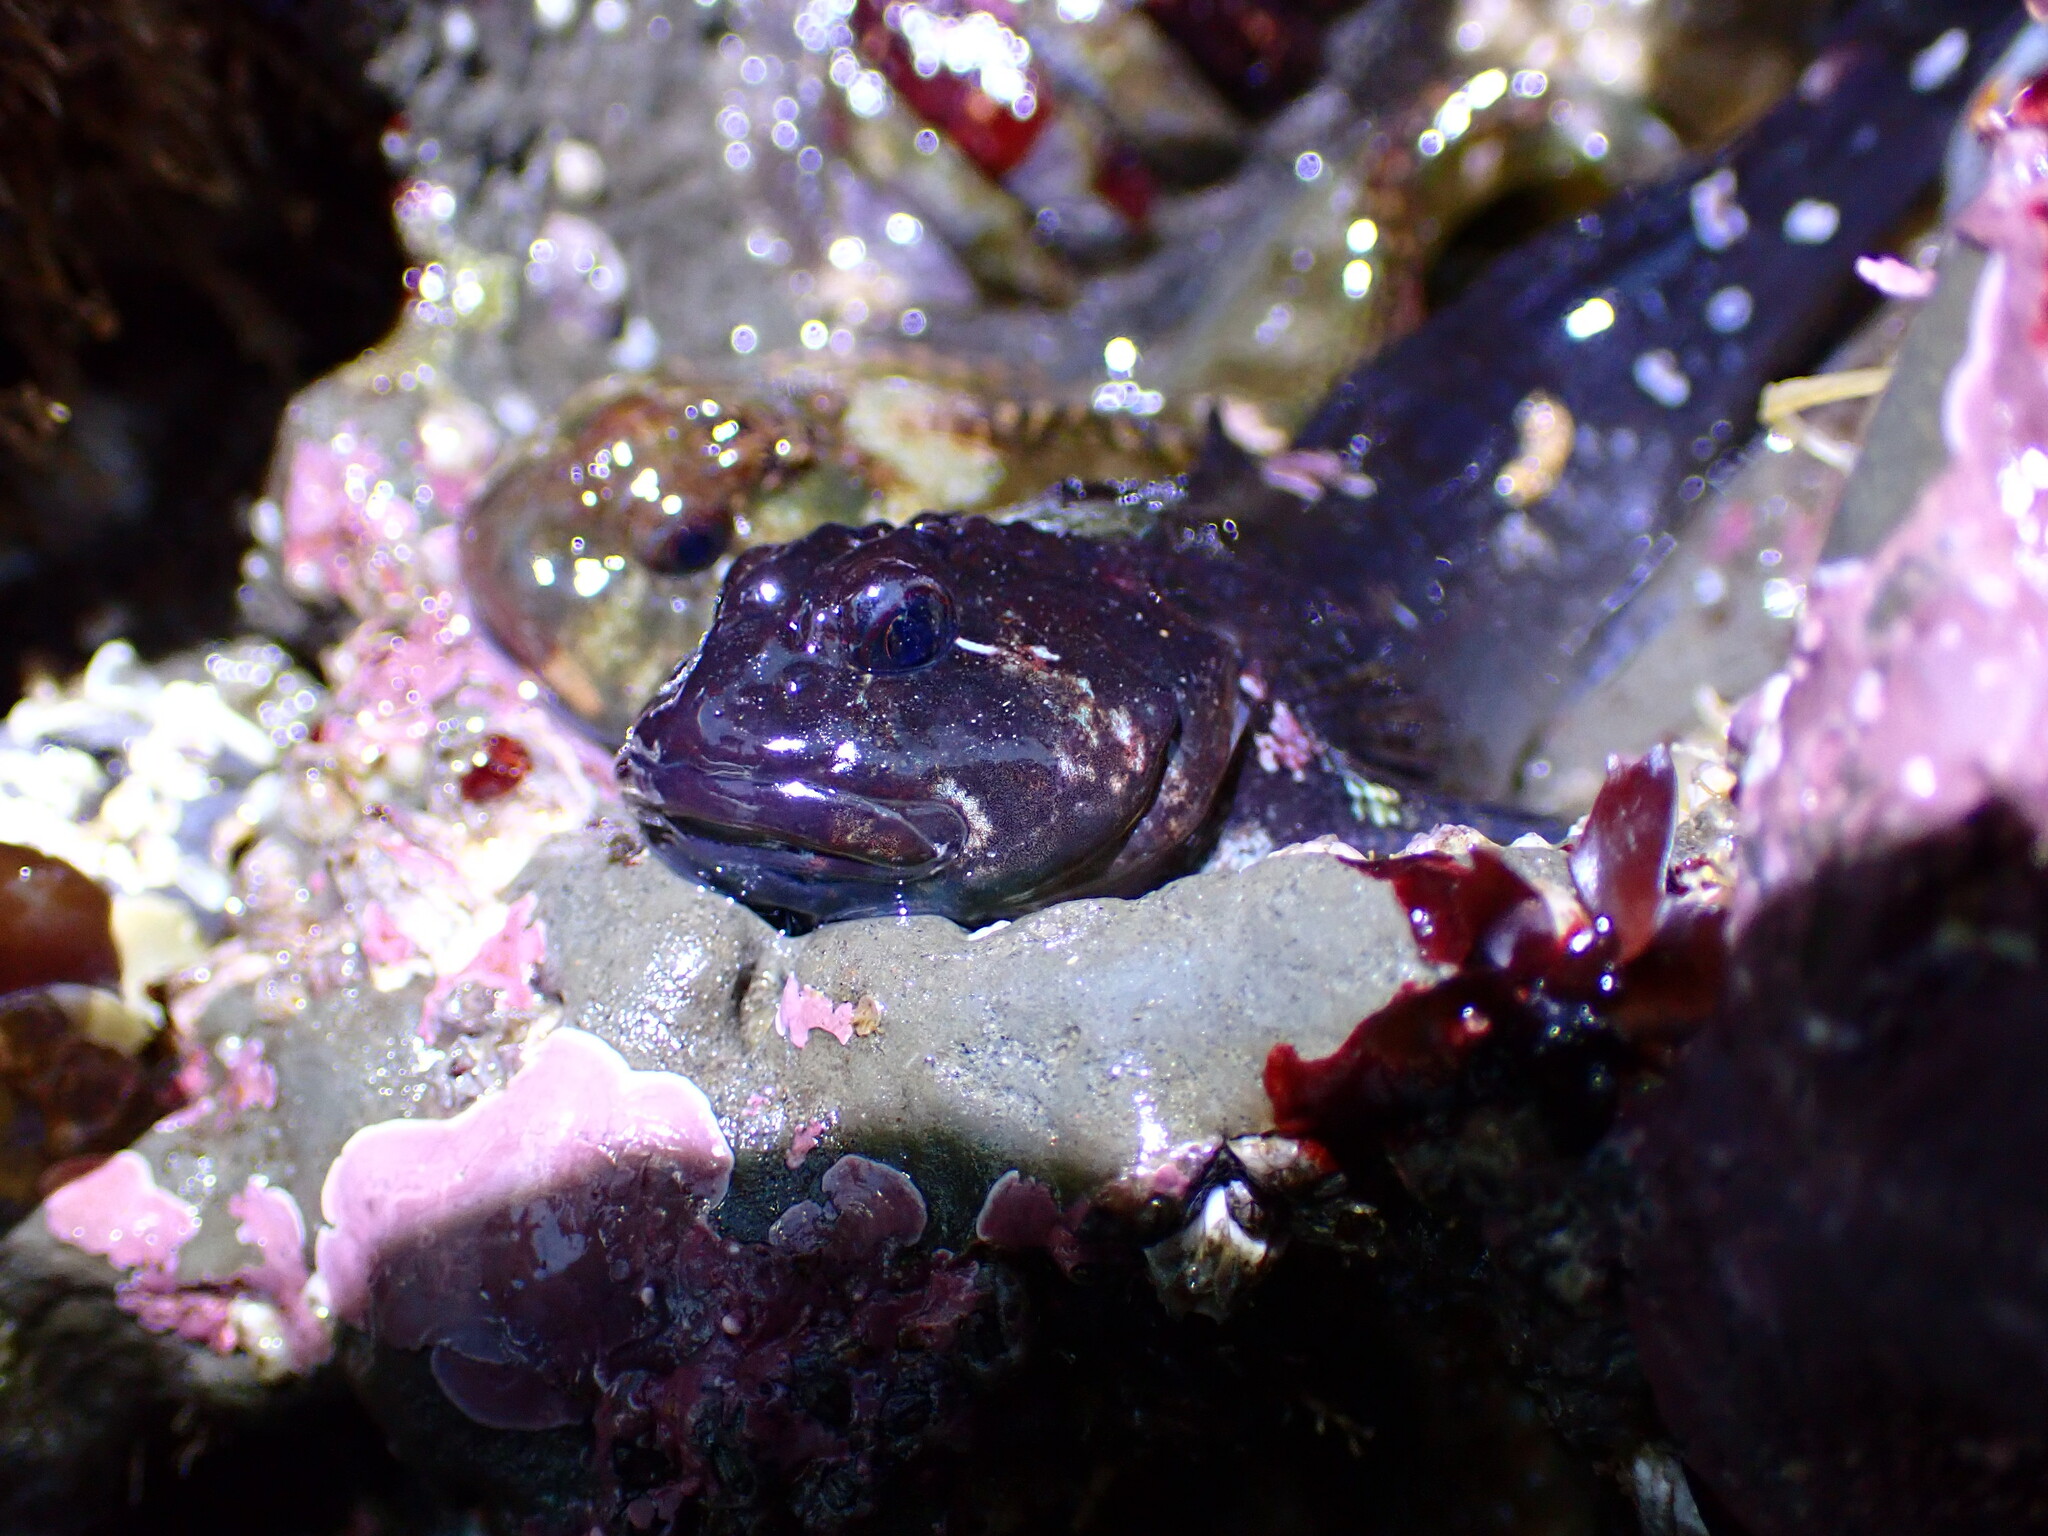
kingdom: Animalia
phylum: Chordata
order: Scorpaeniformes
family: Cottidae
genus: Clinocottus
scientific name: Clinocottus recalvus
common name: Bald sculpin
